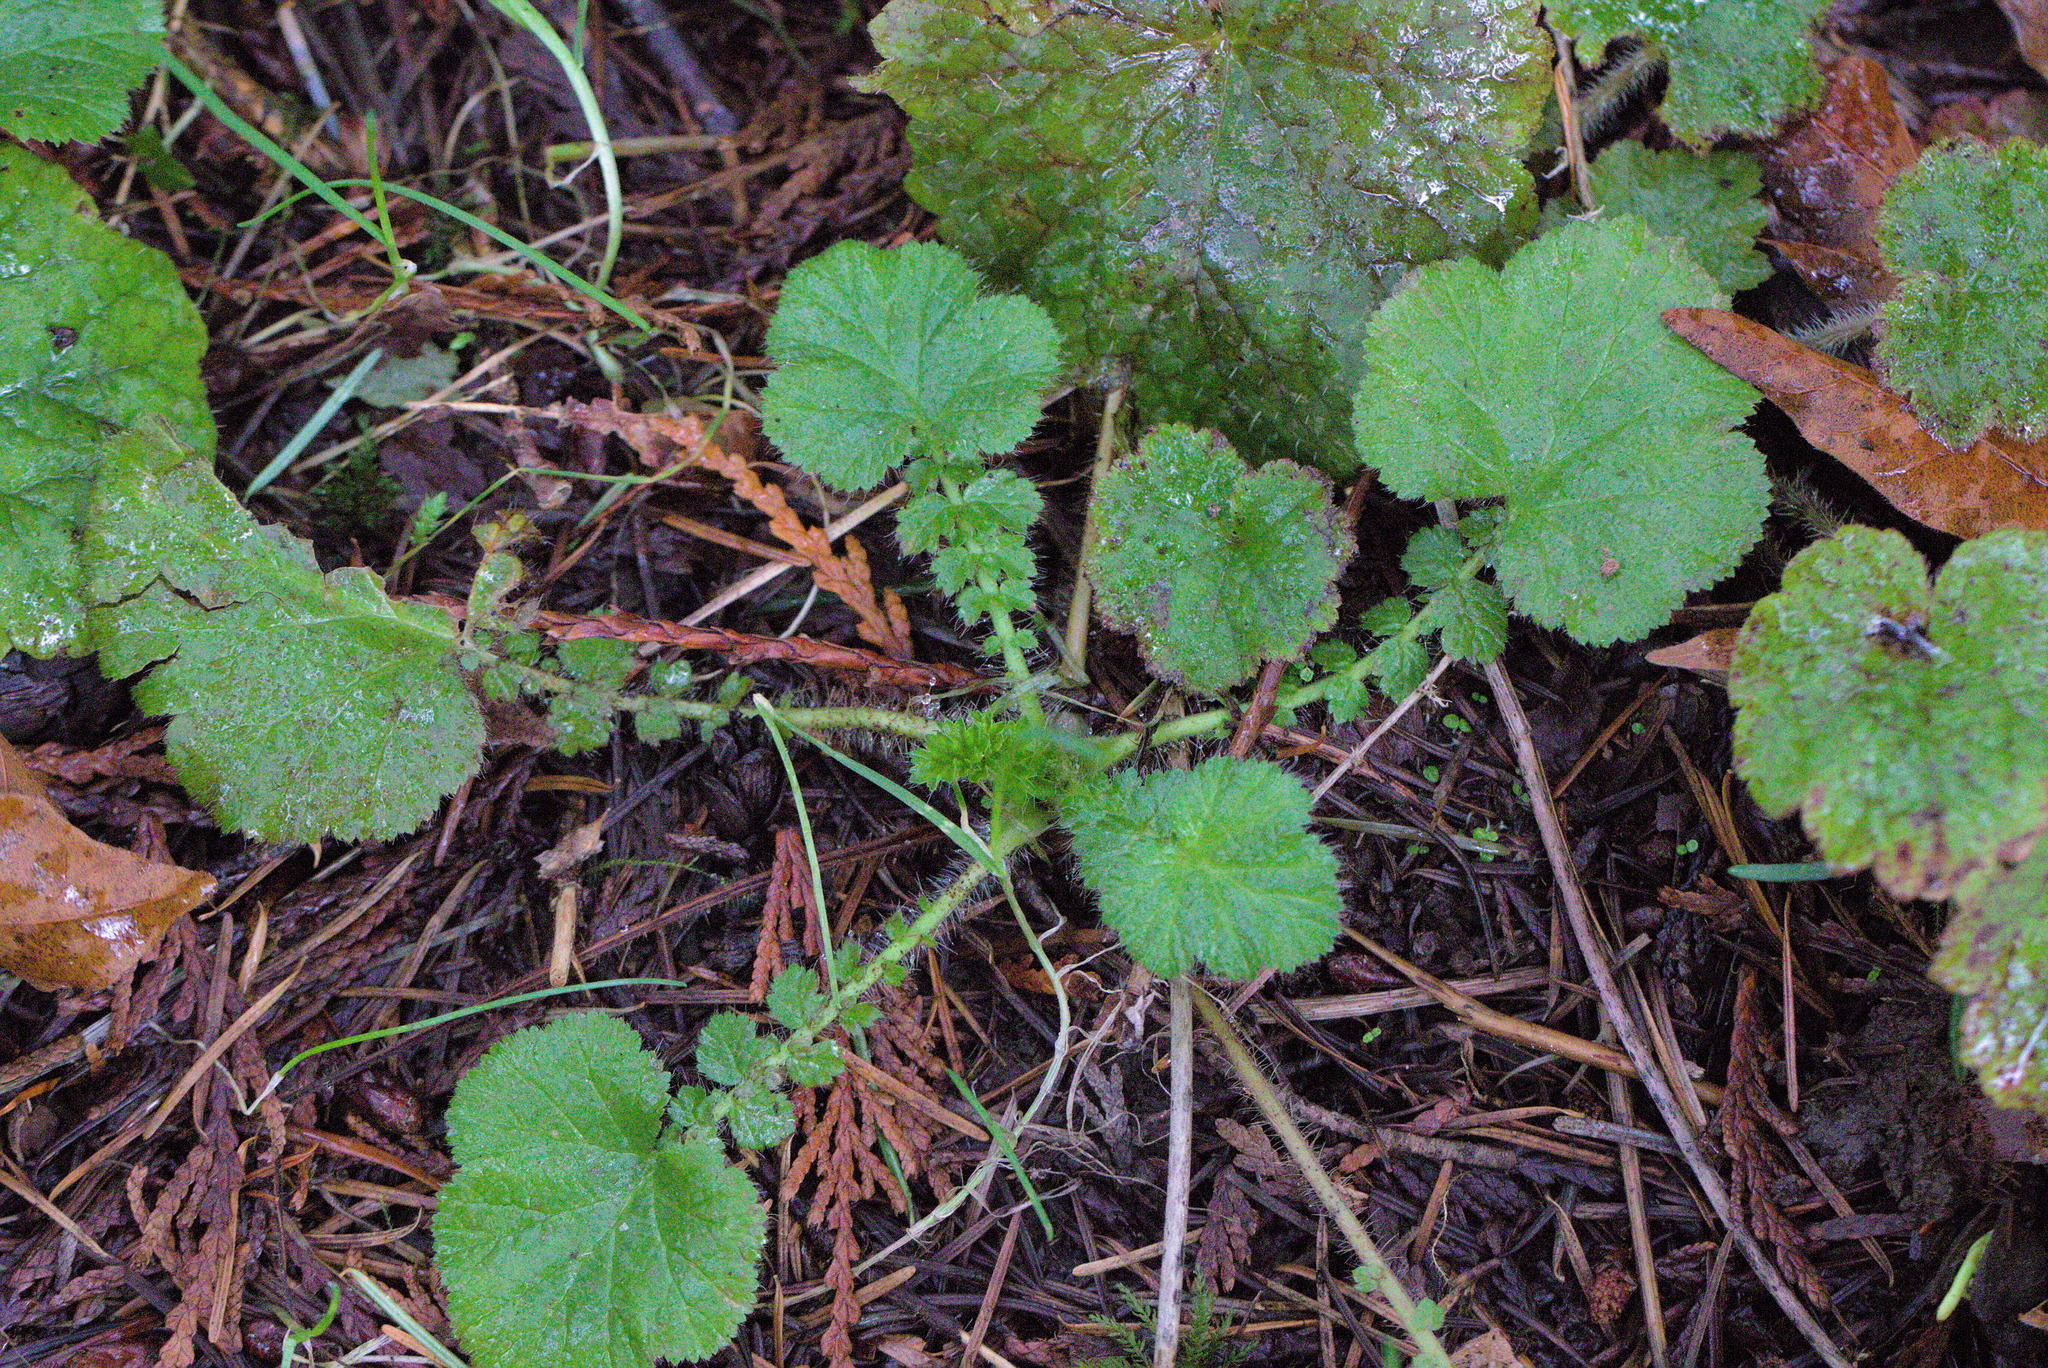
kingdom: Plantae
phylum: Tracheophyta
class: Magnoliopsida
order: Rosales
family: Rosaceae
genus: Geum
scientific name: Geum macrophyllum
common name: Large-leaved avens
